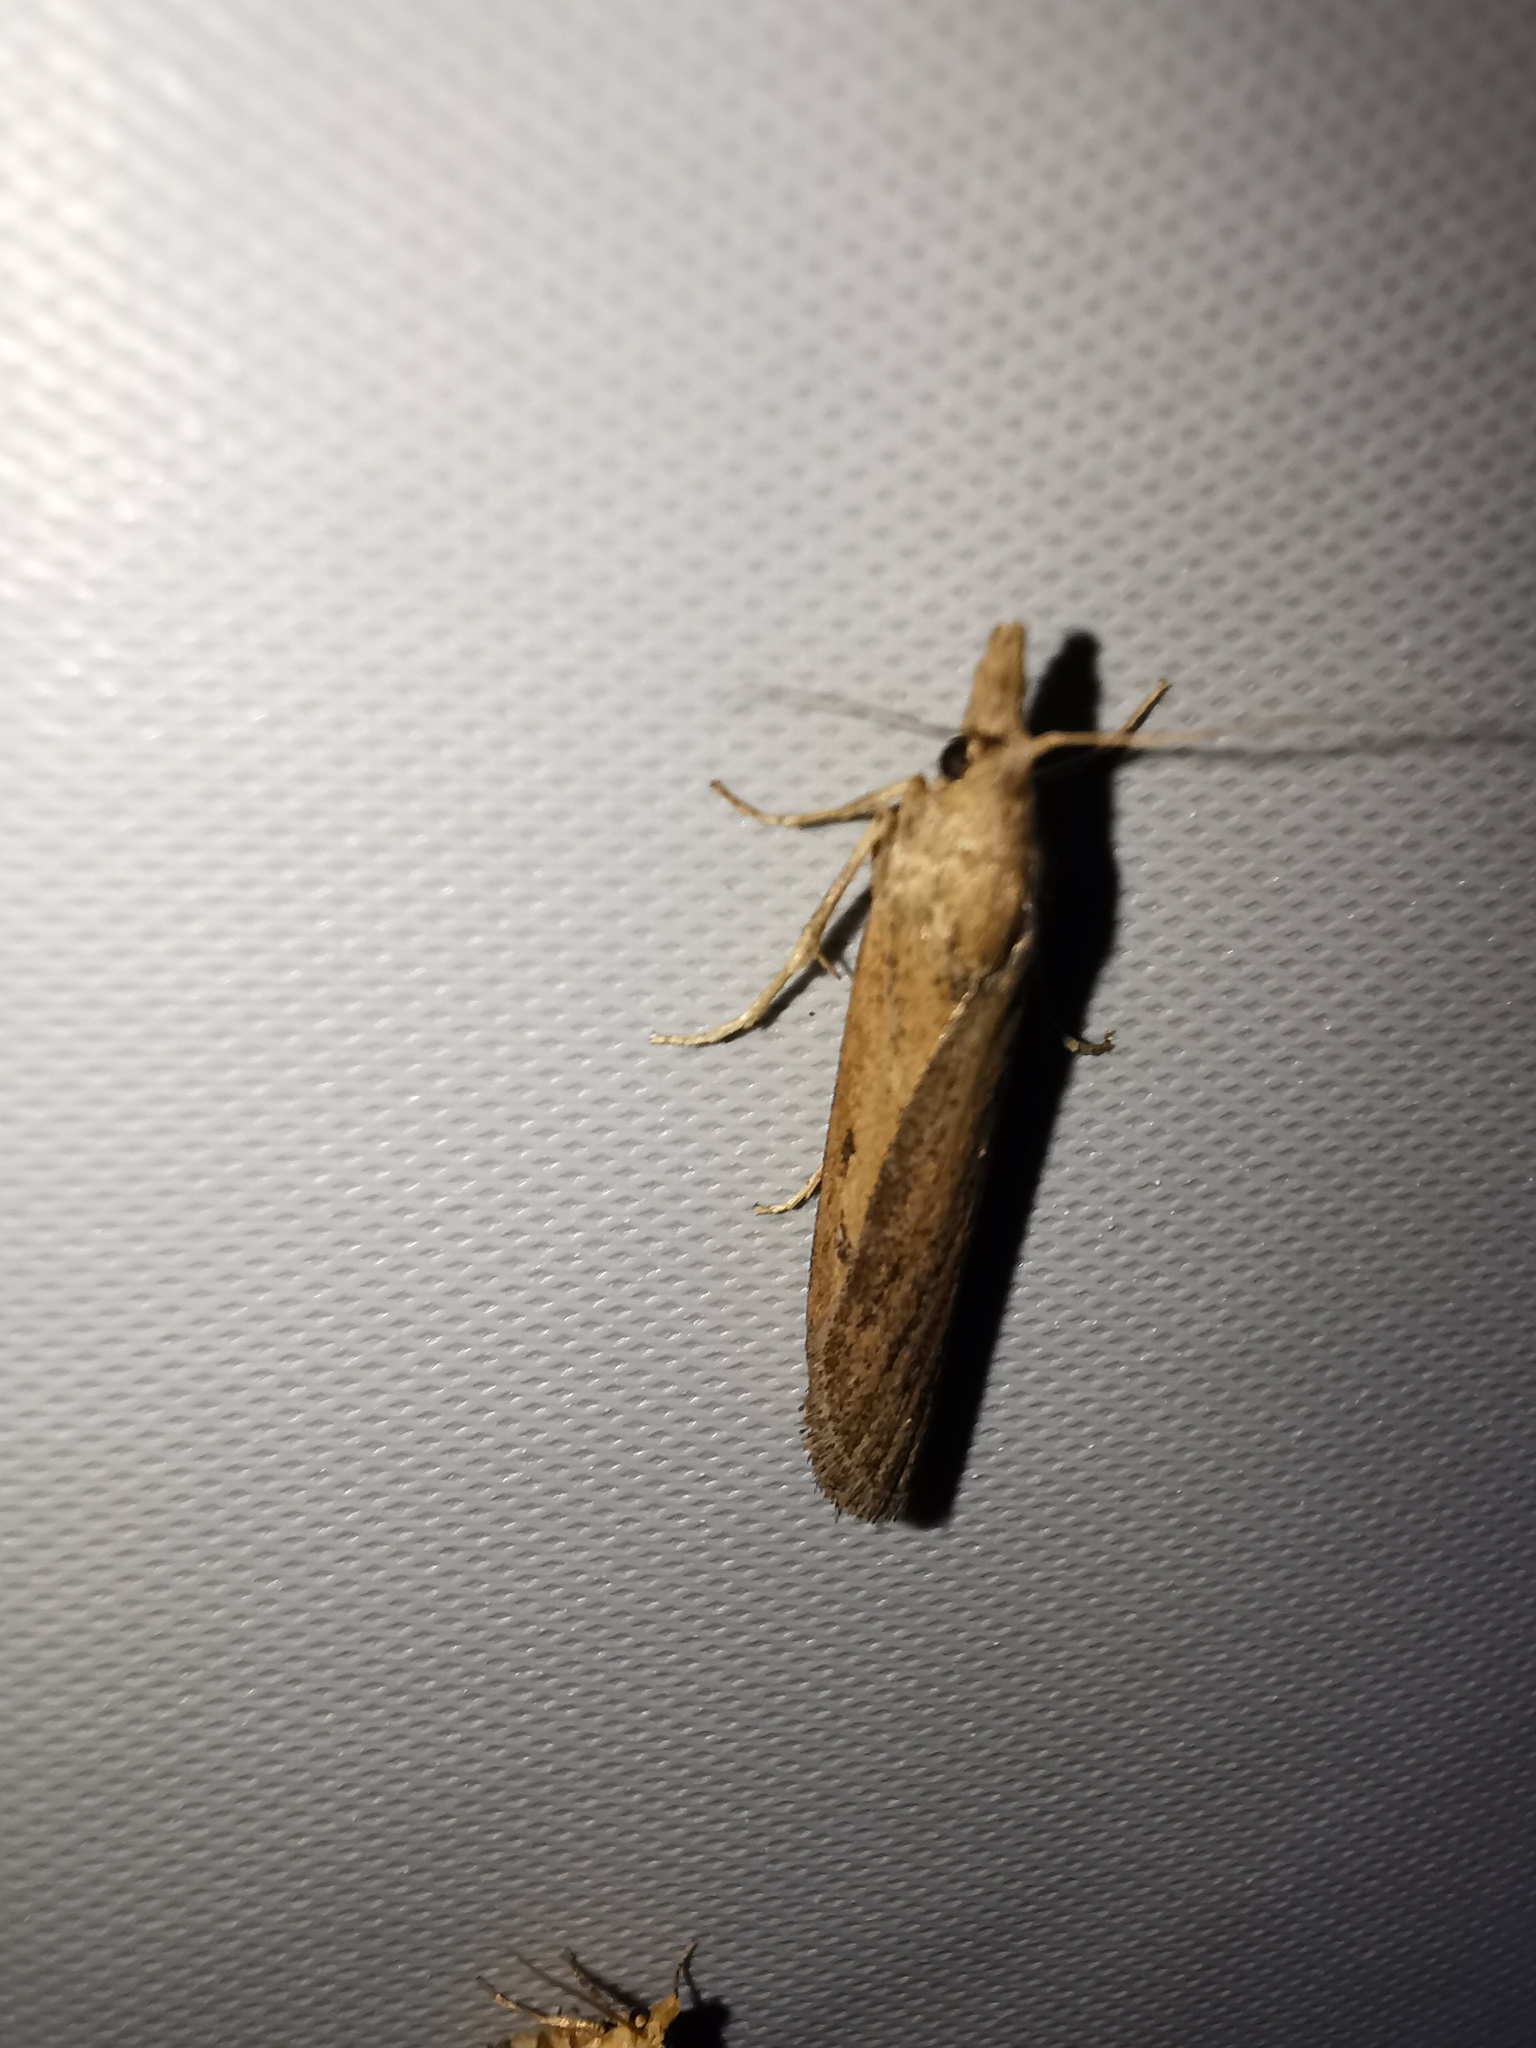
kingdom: Animalia
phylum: Arthropoda
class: Insecta
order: Lepidoptera
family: Pyralidae
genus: Aphomia
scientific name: Aphomia zelleri
